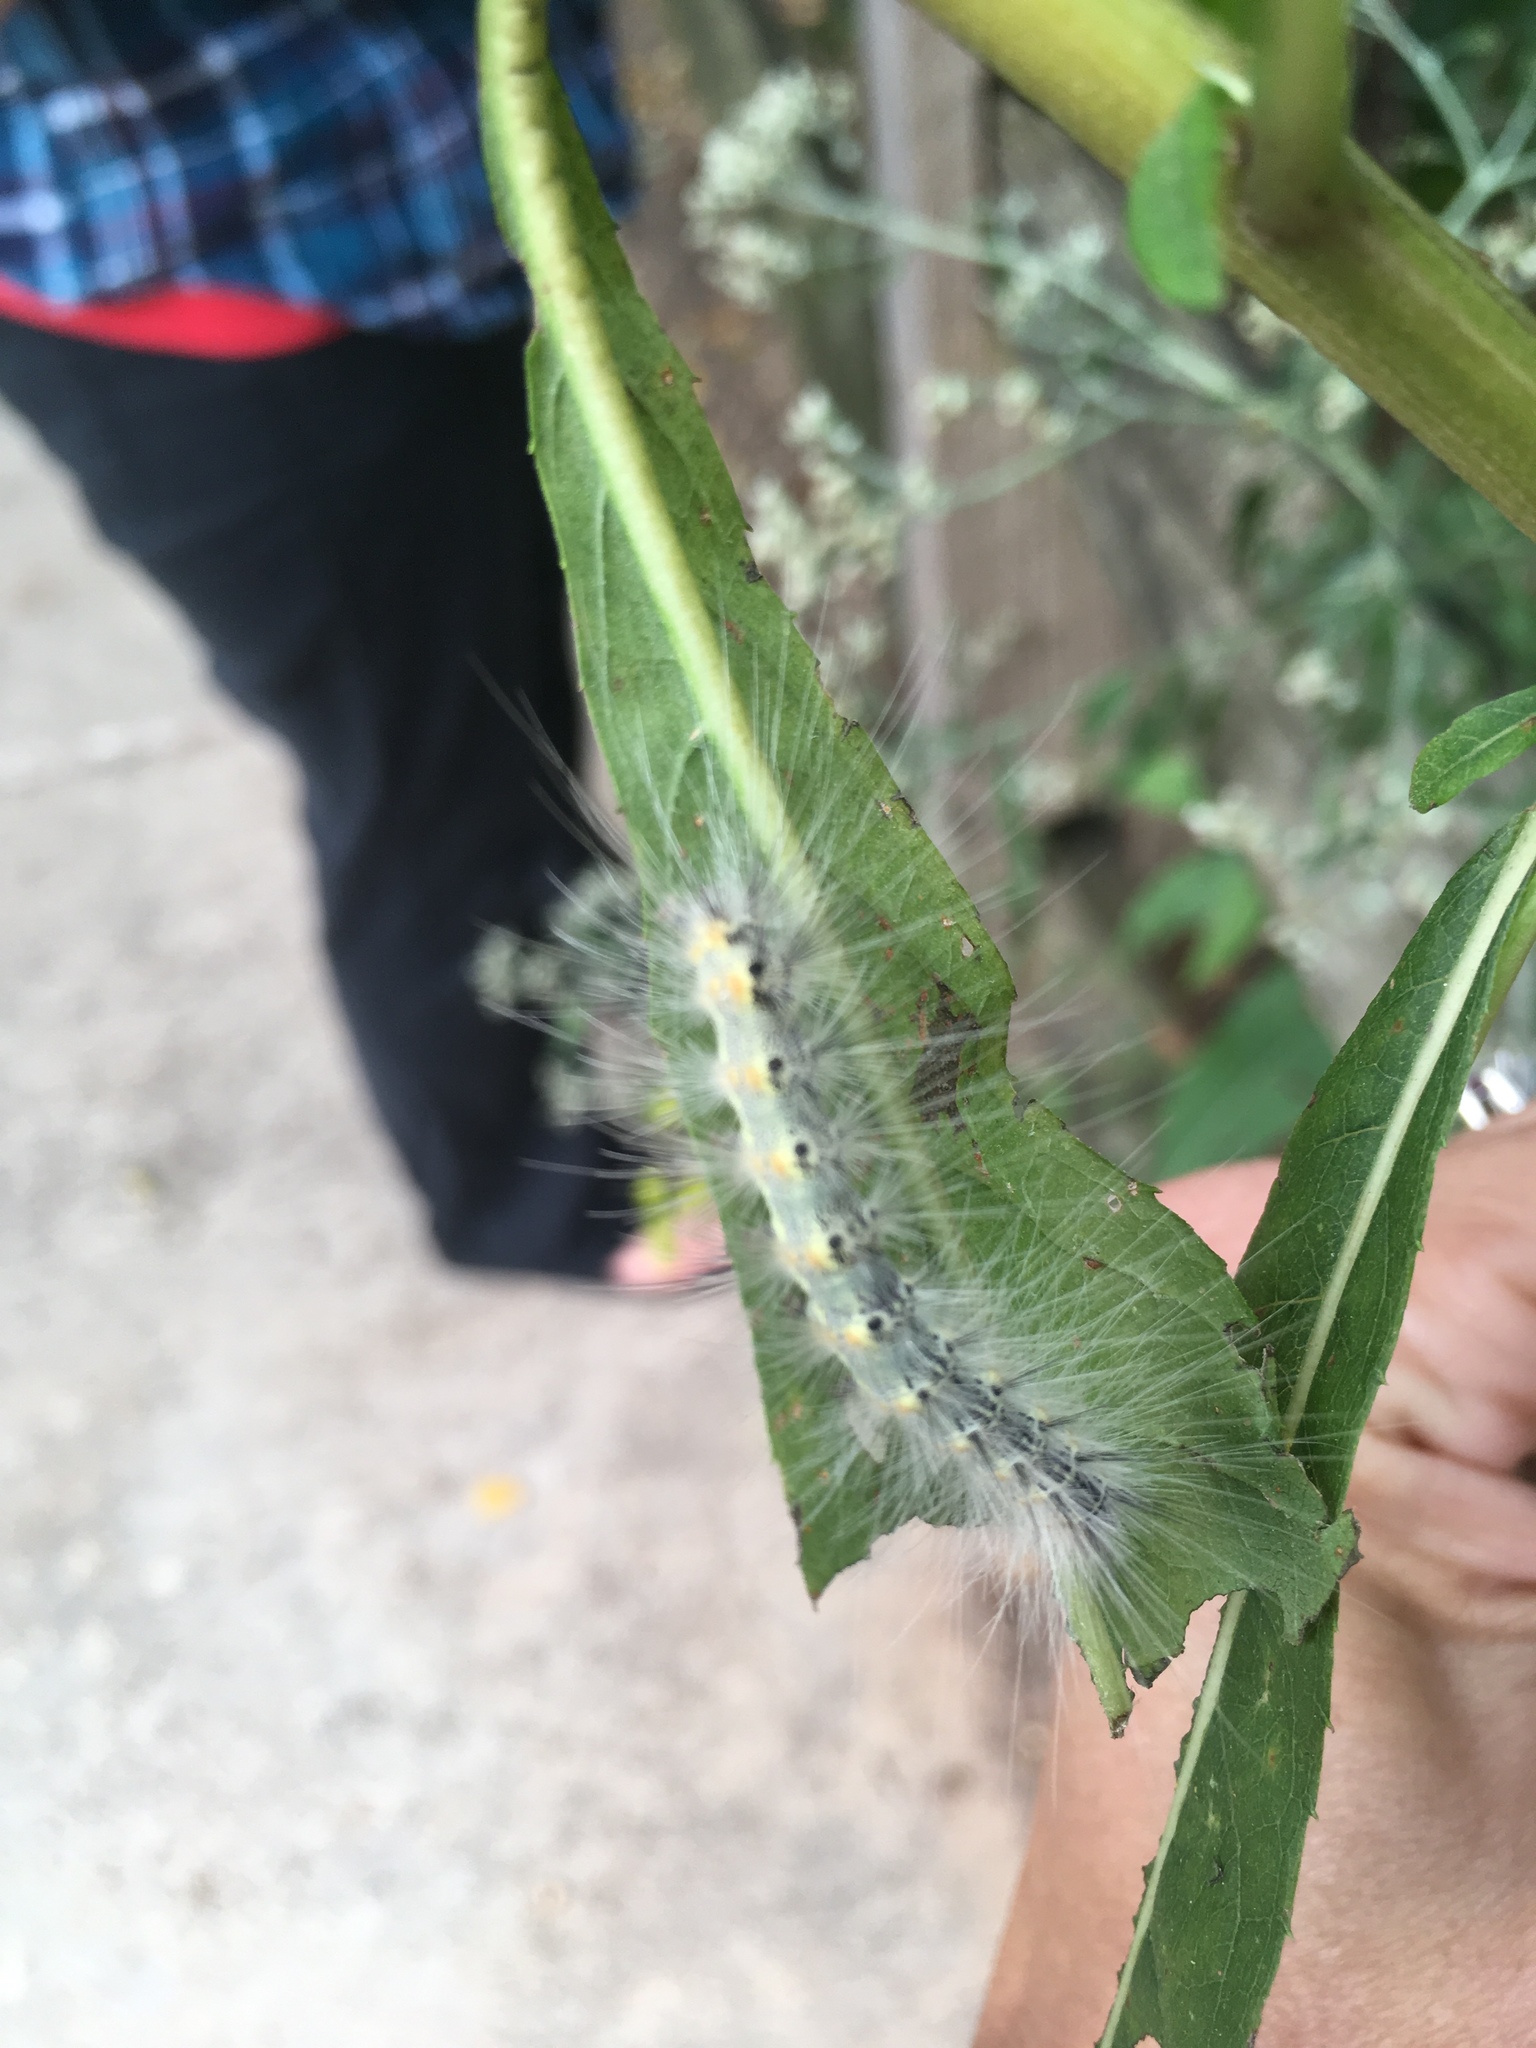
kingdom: Animalia
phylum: Arthropoda
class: Insecta
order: Lepidoptera
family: Erebidae
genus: Hyphantria
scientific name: Hyphantria cunea
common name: American white moth
